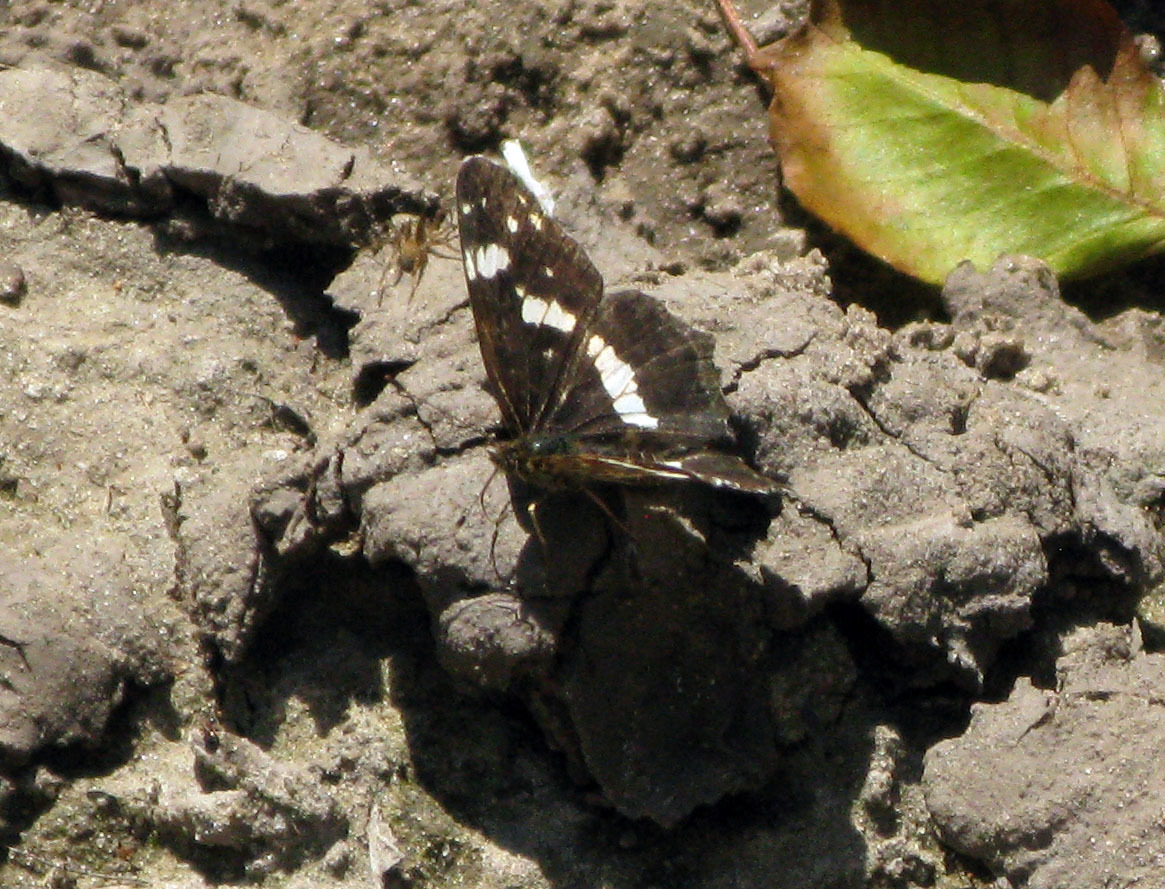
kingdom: Animalia
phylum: Arthropoda
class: Insecta
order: Lepidoptera
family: Nymphalidae
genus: Araschnia
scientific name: Araschnia levana
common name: Map butterfly
